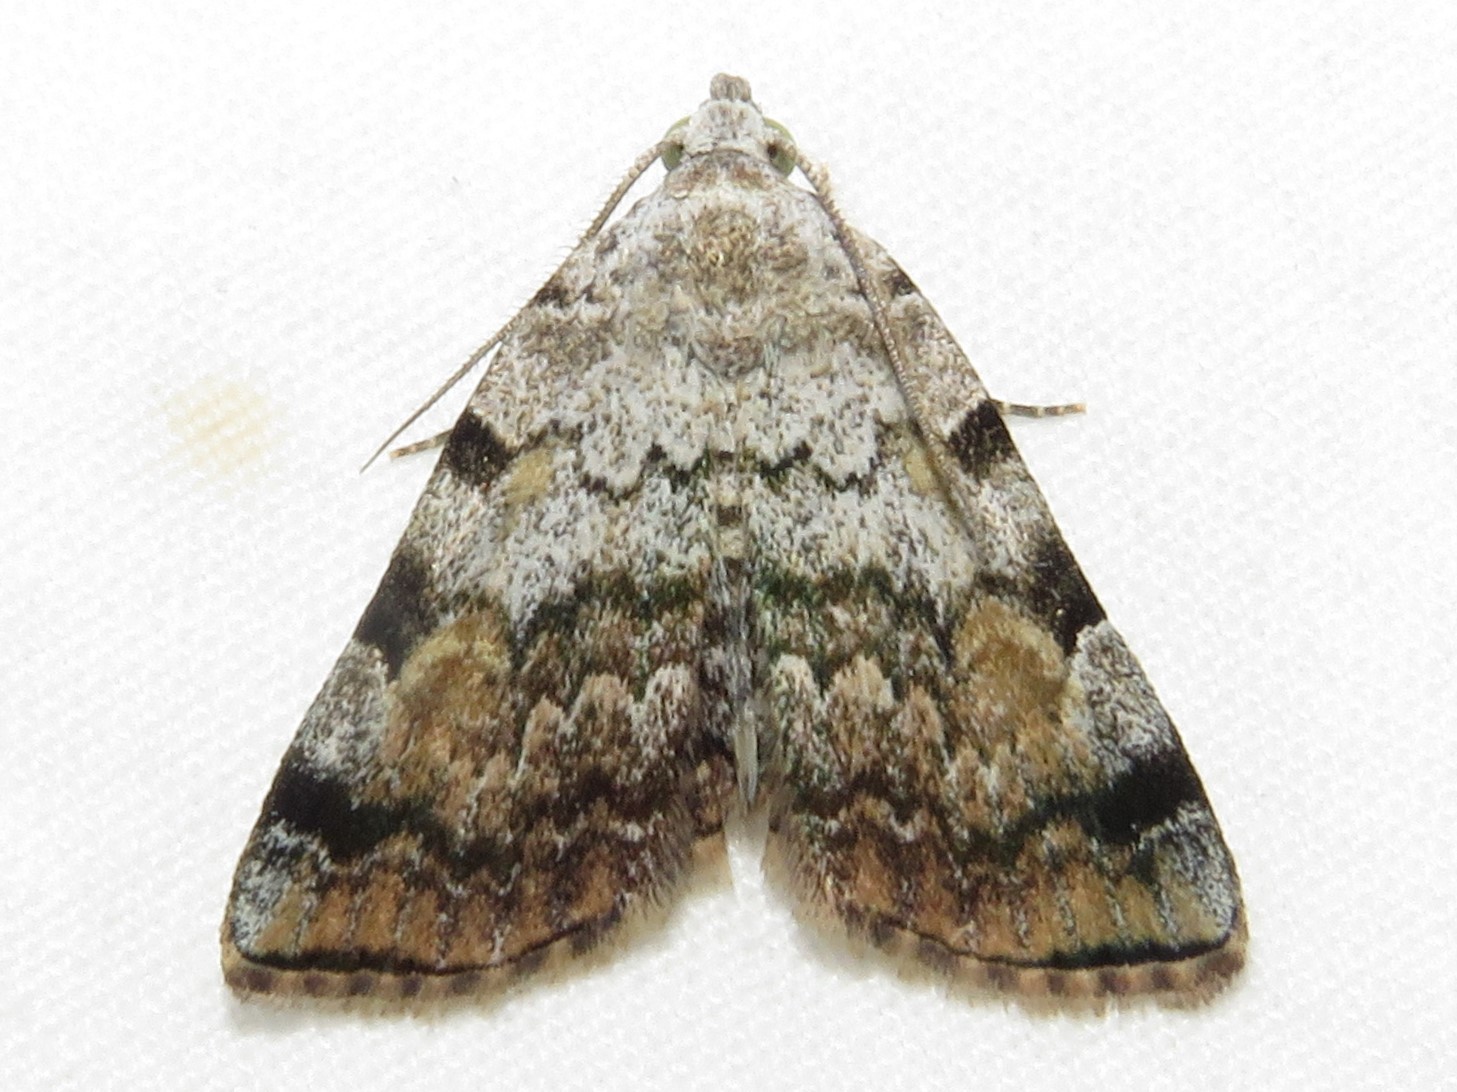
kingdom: Animalia
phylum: Arthropoda
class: Insecta
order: Lepidoptera
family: Erebidae
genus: Idia
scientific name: Idia americalis
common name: American idia moth
